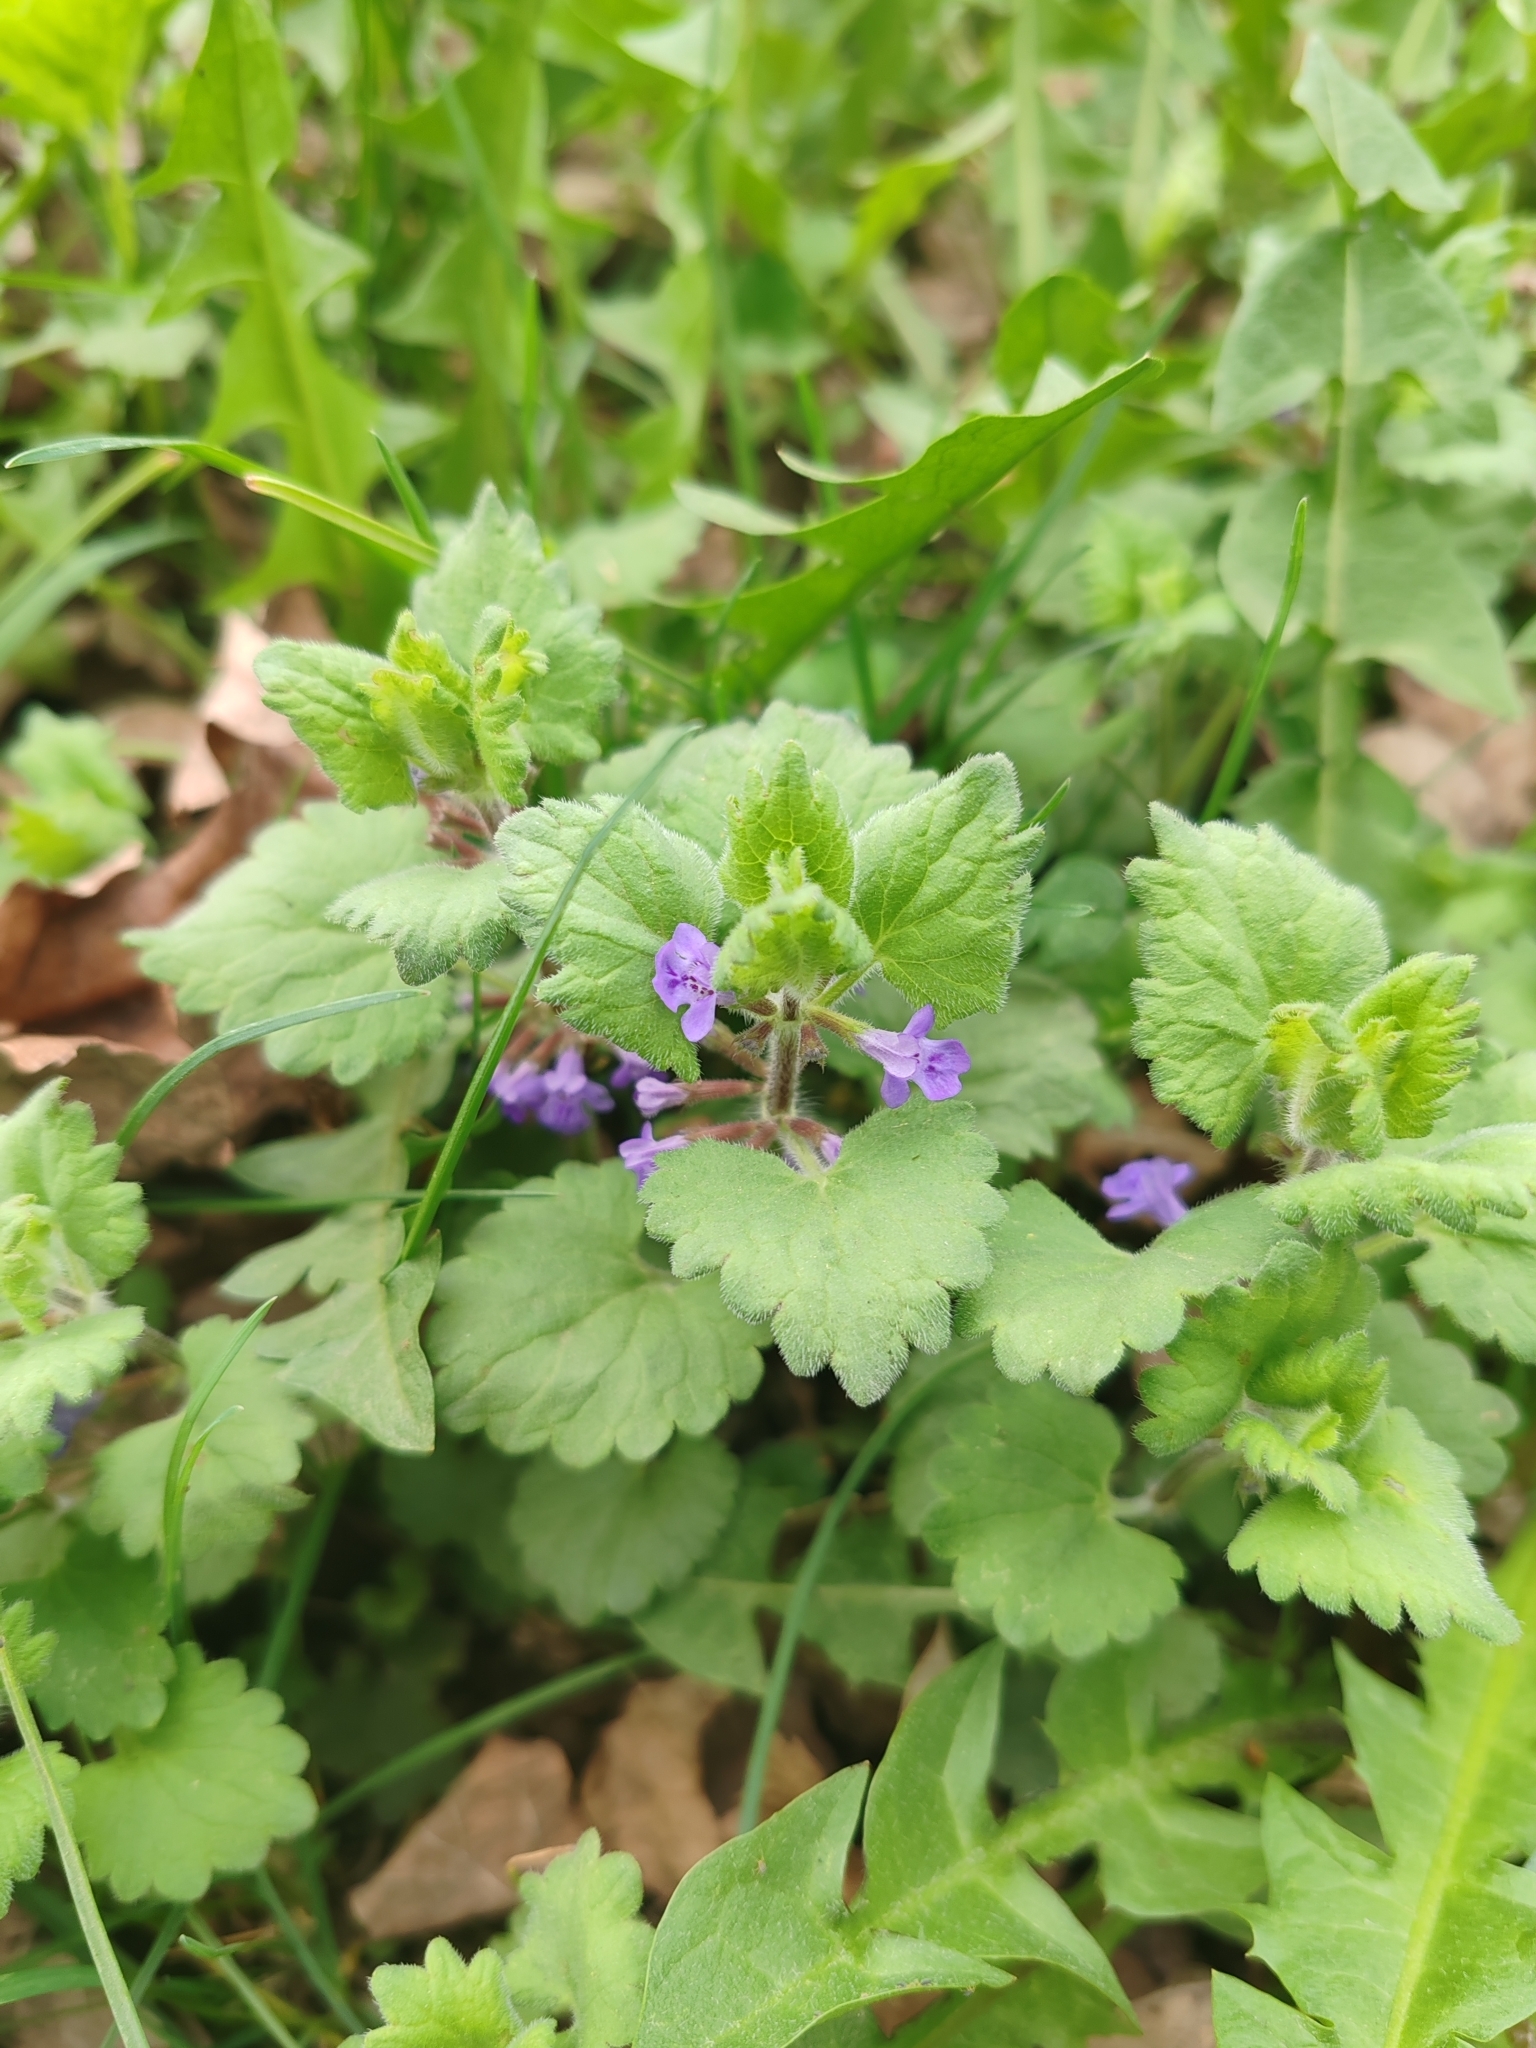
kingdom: Plantae
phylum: Tracheophyta
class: Magnoliopsida
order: Lamiales
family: Lamiaceae
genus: Glechoma
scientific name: Glechoma hederacea
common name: Ground ivy
